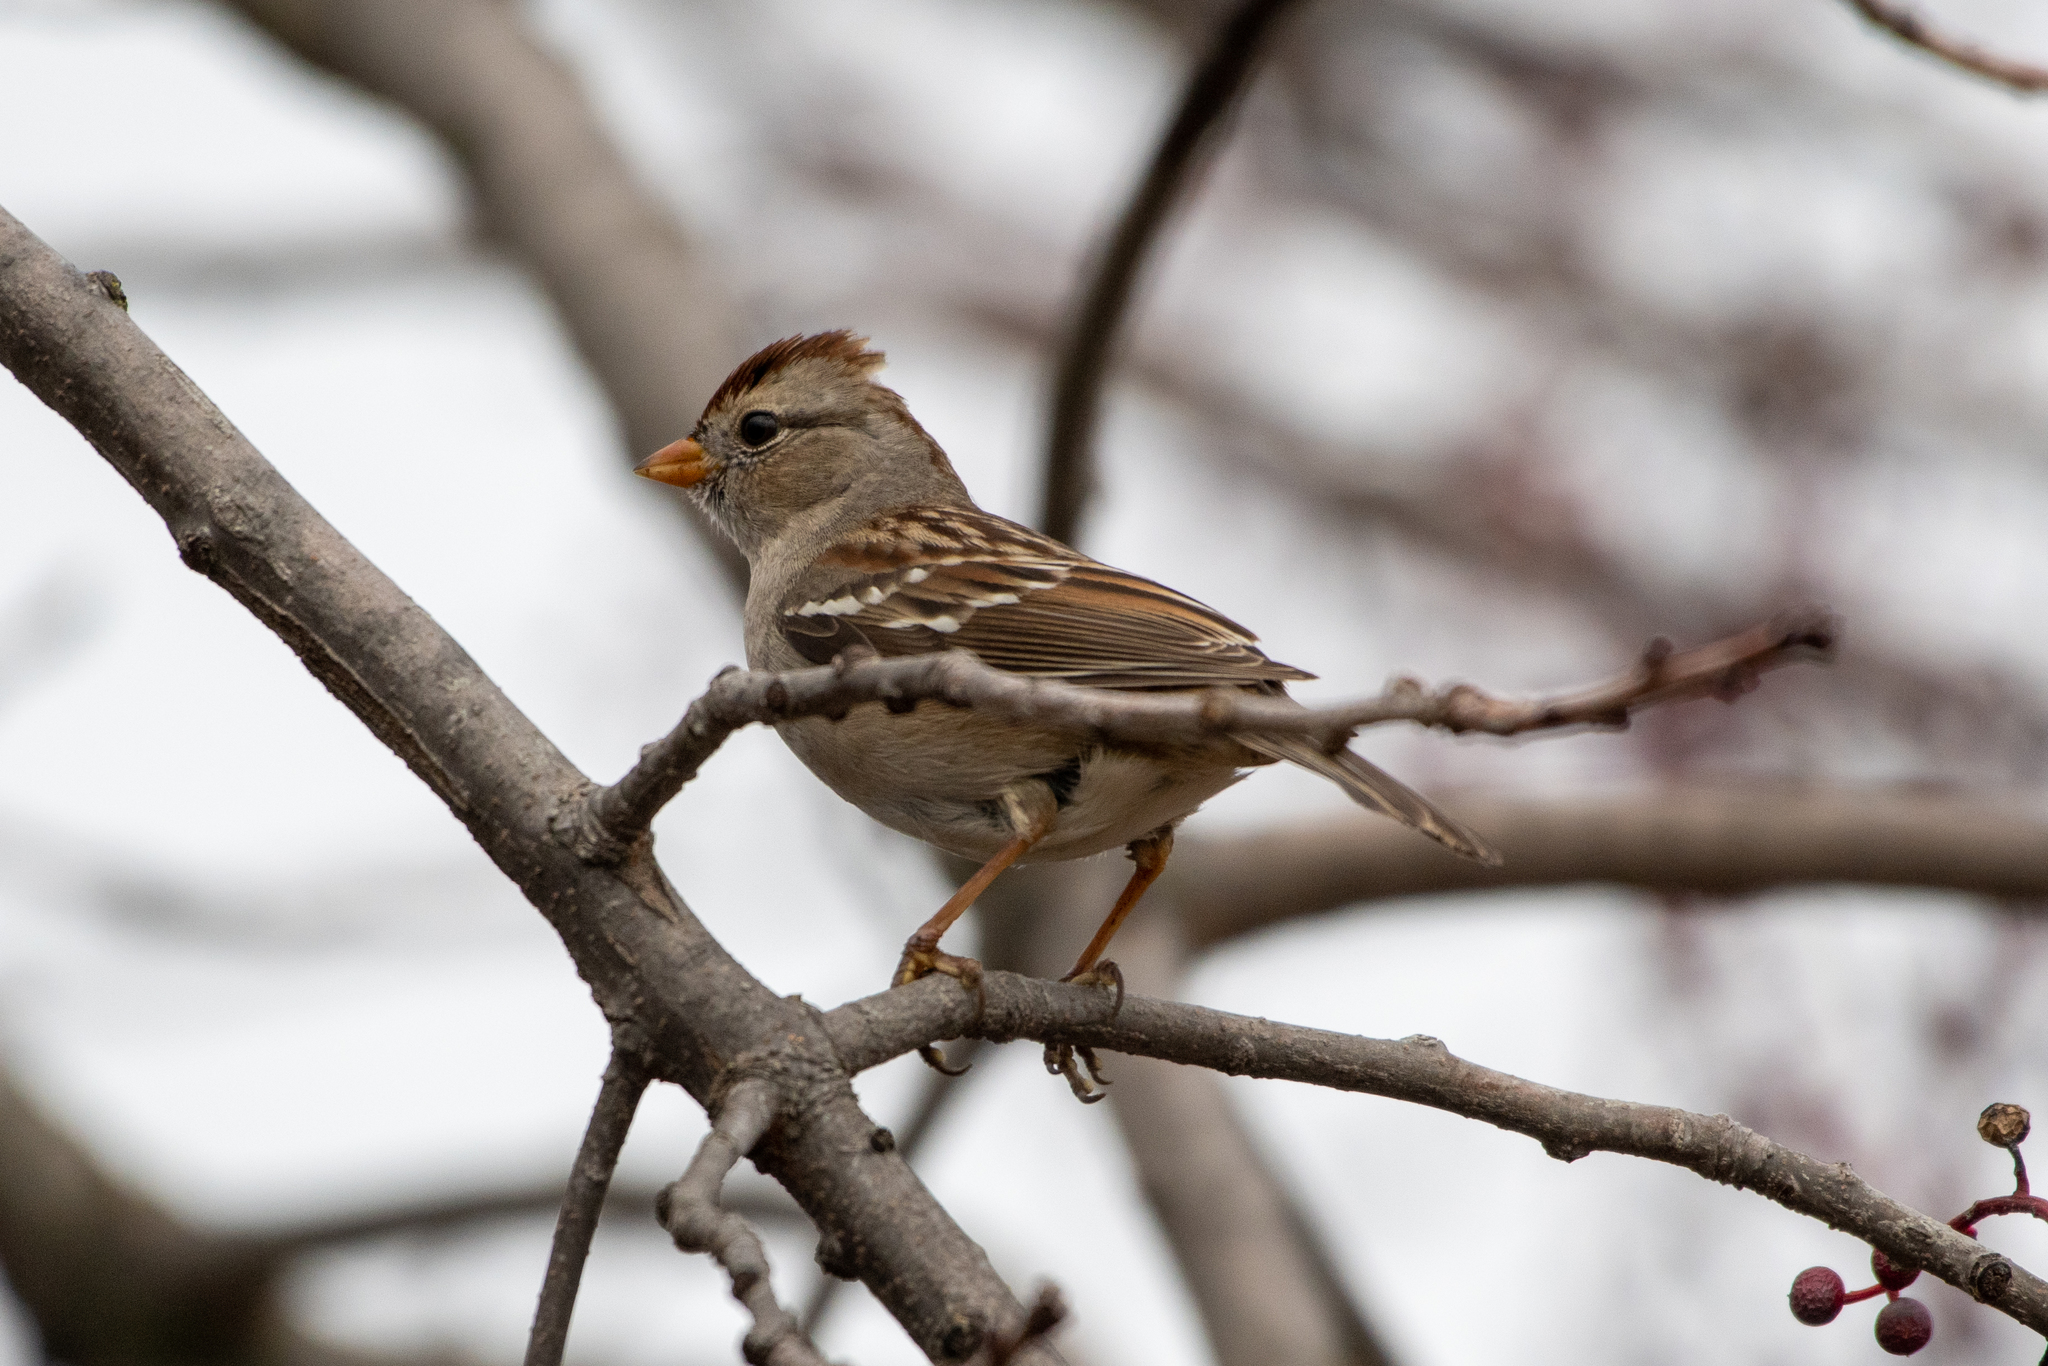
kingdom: Animalia
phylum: Chordata
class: Aves
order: Passeriformes
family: Passerellidae
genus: Zonotrichia
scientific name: Zonotrichia leucophrys
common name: White-crowned sparrow
